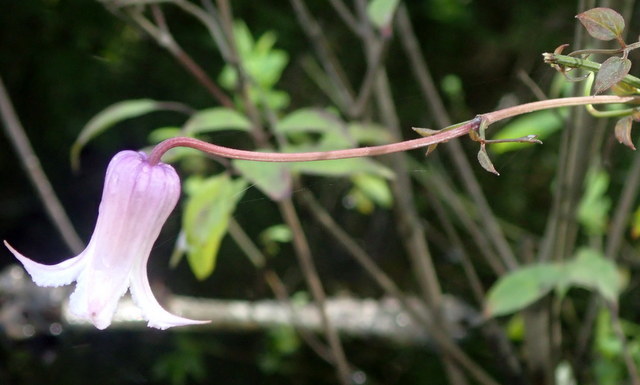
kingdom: Plantae
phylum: Tracheophyta
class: Magnoliopsida
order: Ranunculales
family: Ranunculaceae
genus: Clematis
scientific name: Clematis crispa
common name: Curly clematis
